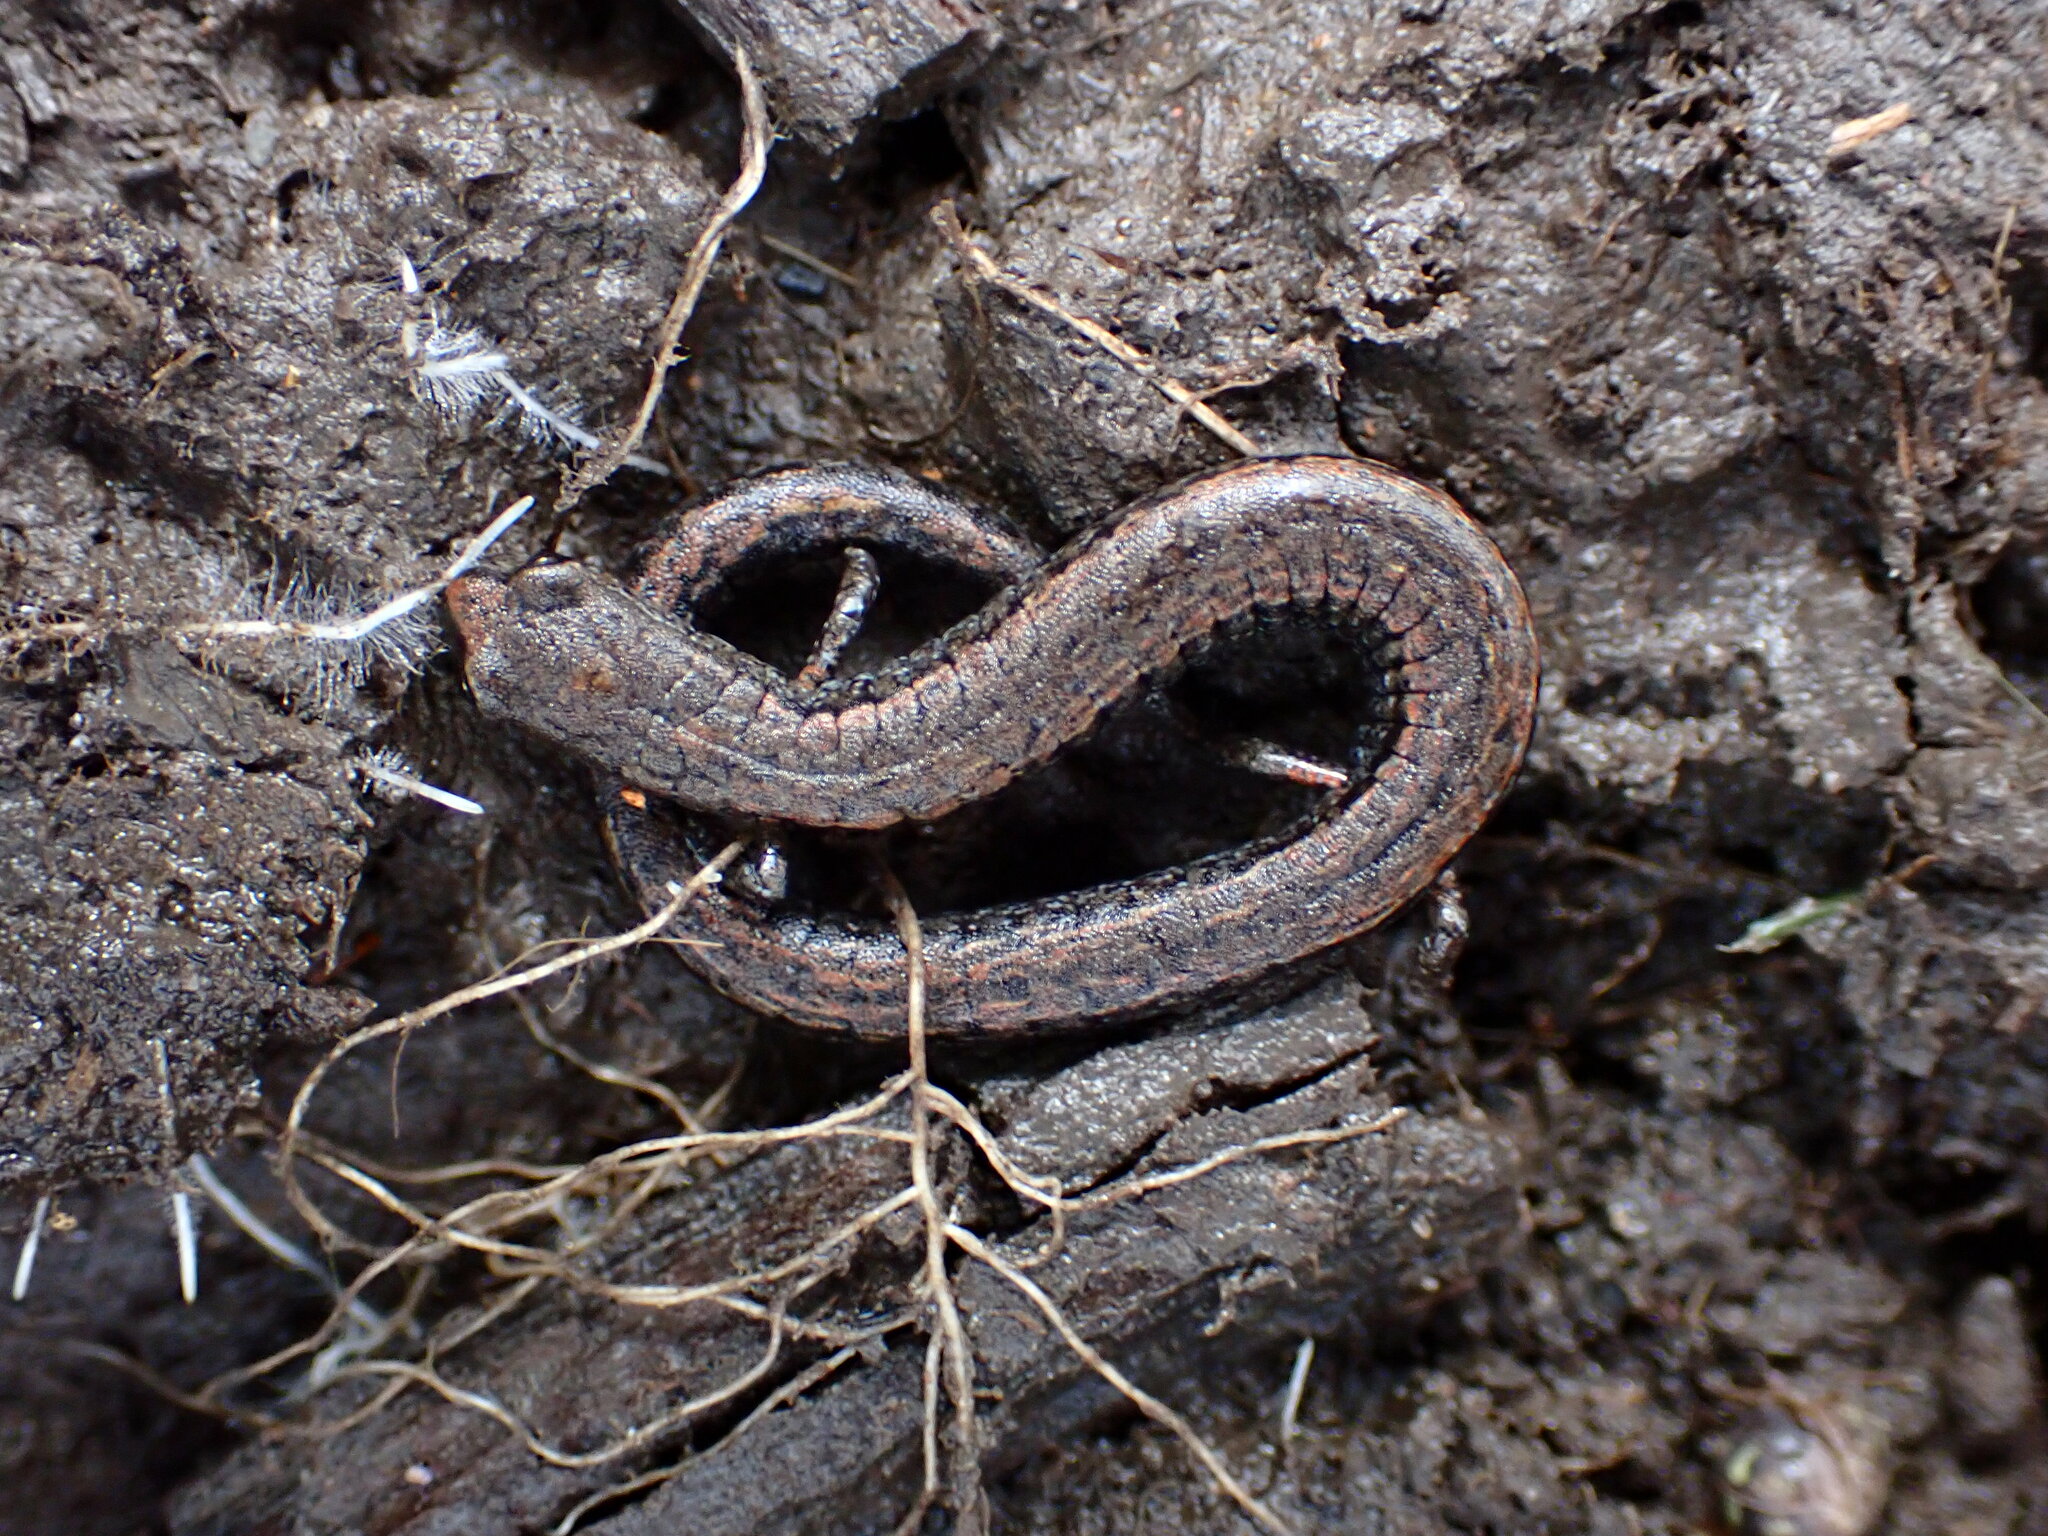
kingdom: Animalia
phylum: Chordata
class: Amphibia
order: Caudata
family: Plethodontidae
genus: Batrachoseps
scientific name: Batrachoseps attenuatus
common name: California slender salamander
